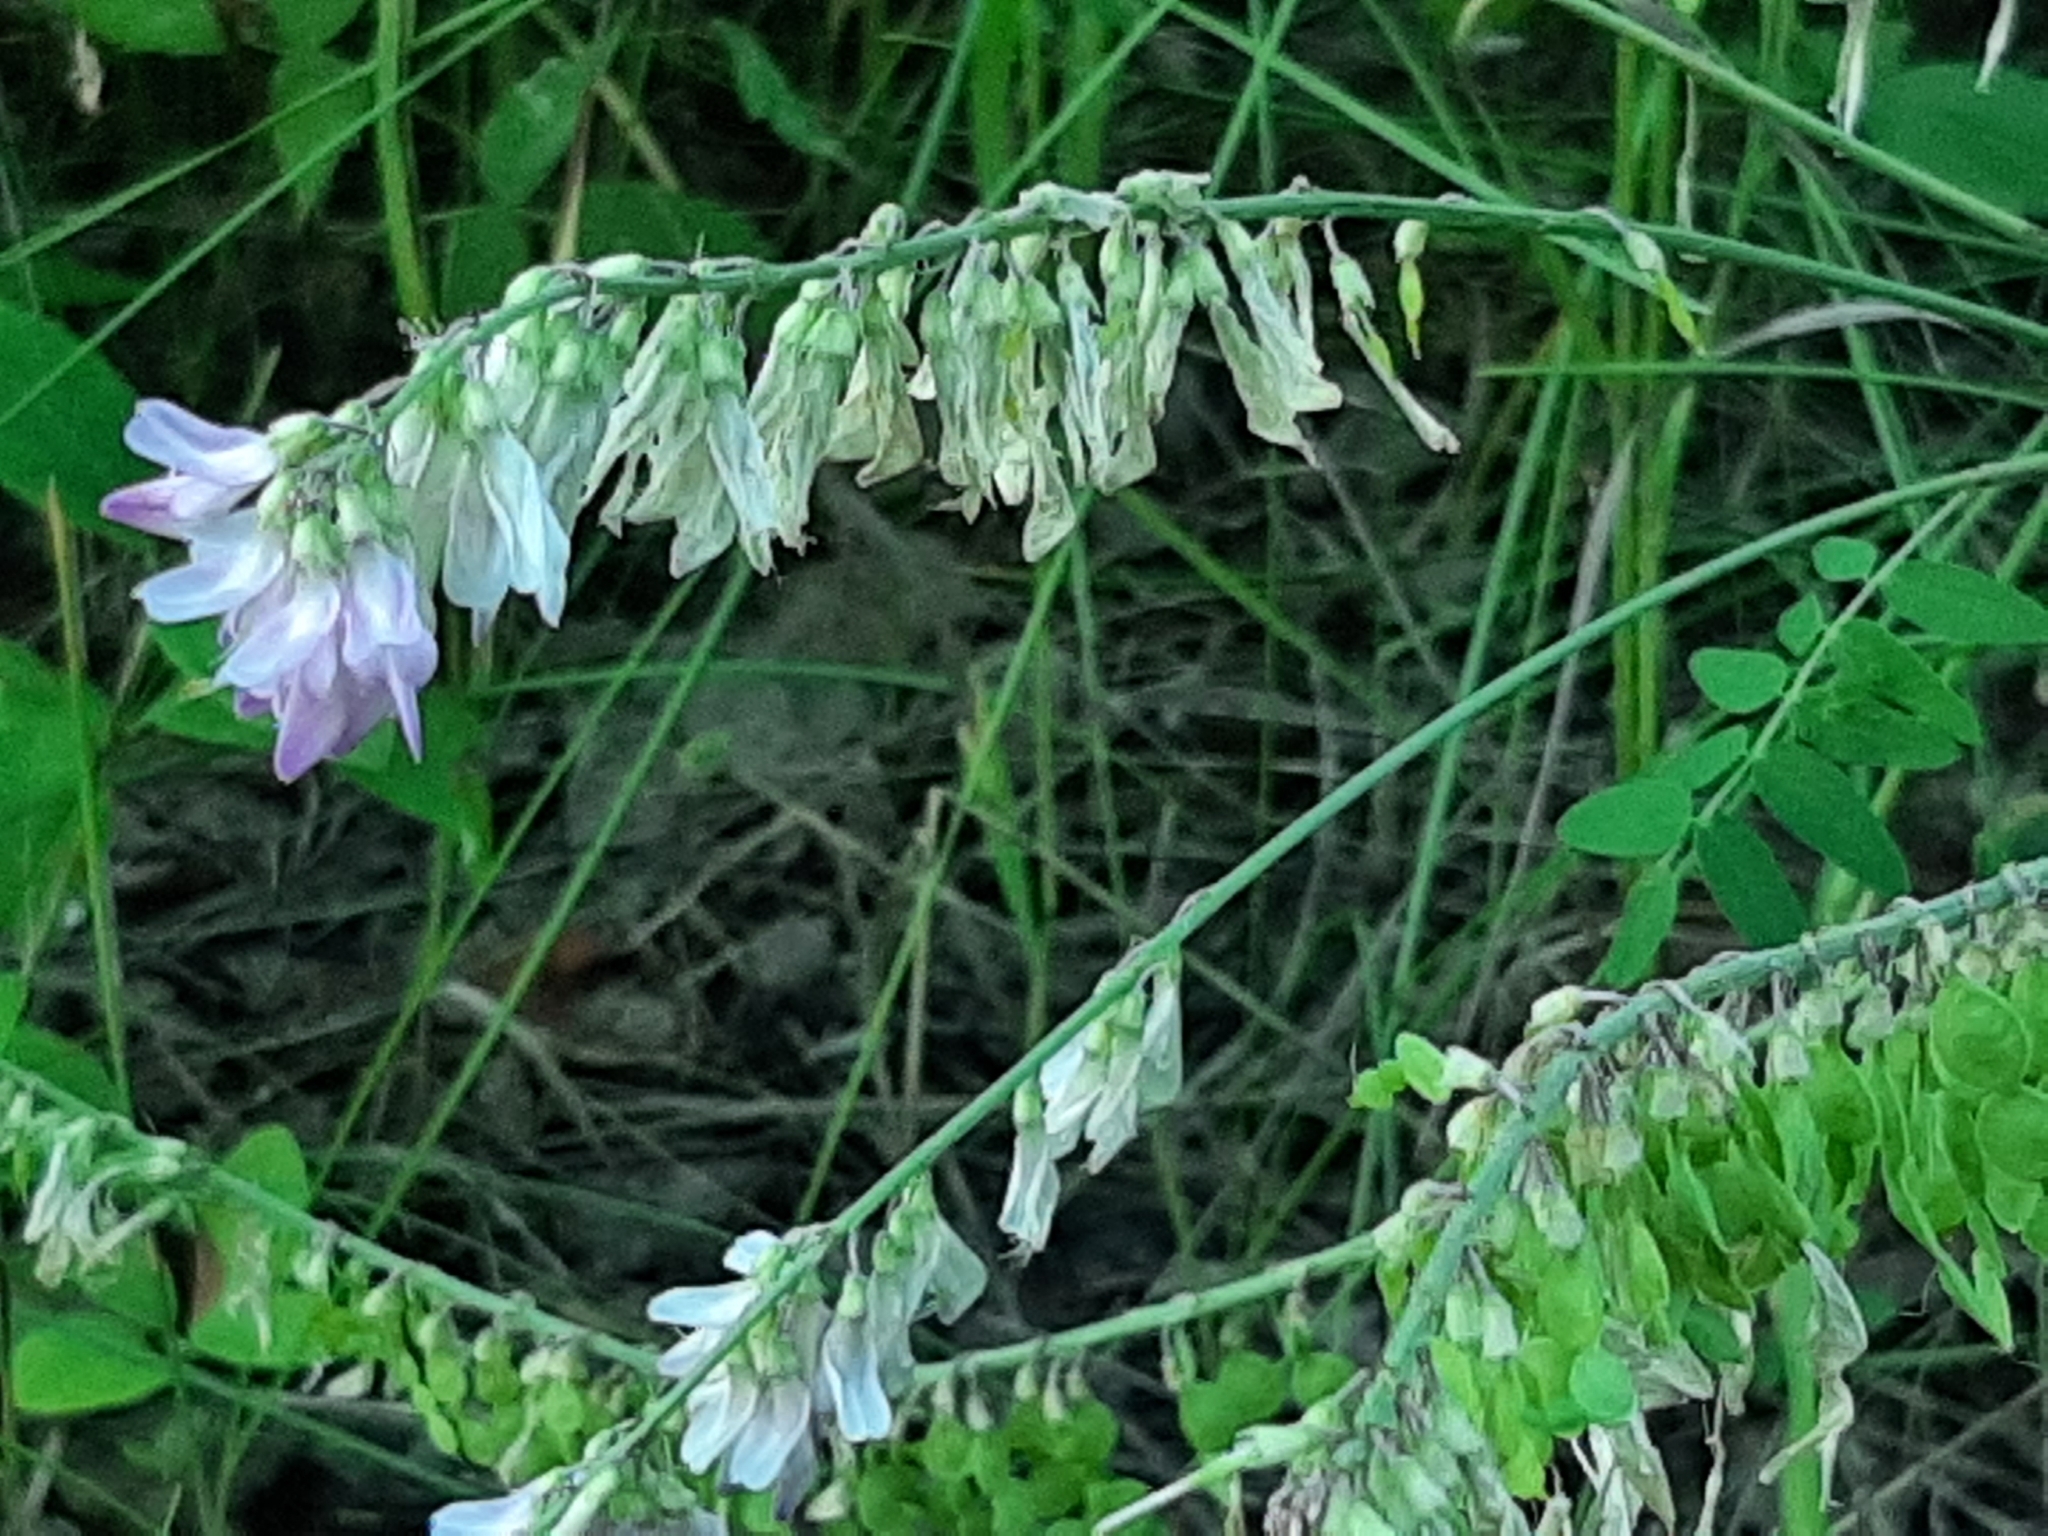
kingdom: Plantae
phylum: Tracheophyta
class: Magnoliopsida
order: Fabales
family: Fabaceae
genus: Hedysarum
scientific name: Hedysarum alpinum
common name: Alpine sweet-vetch
